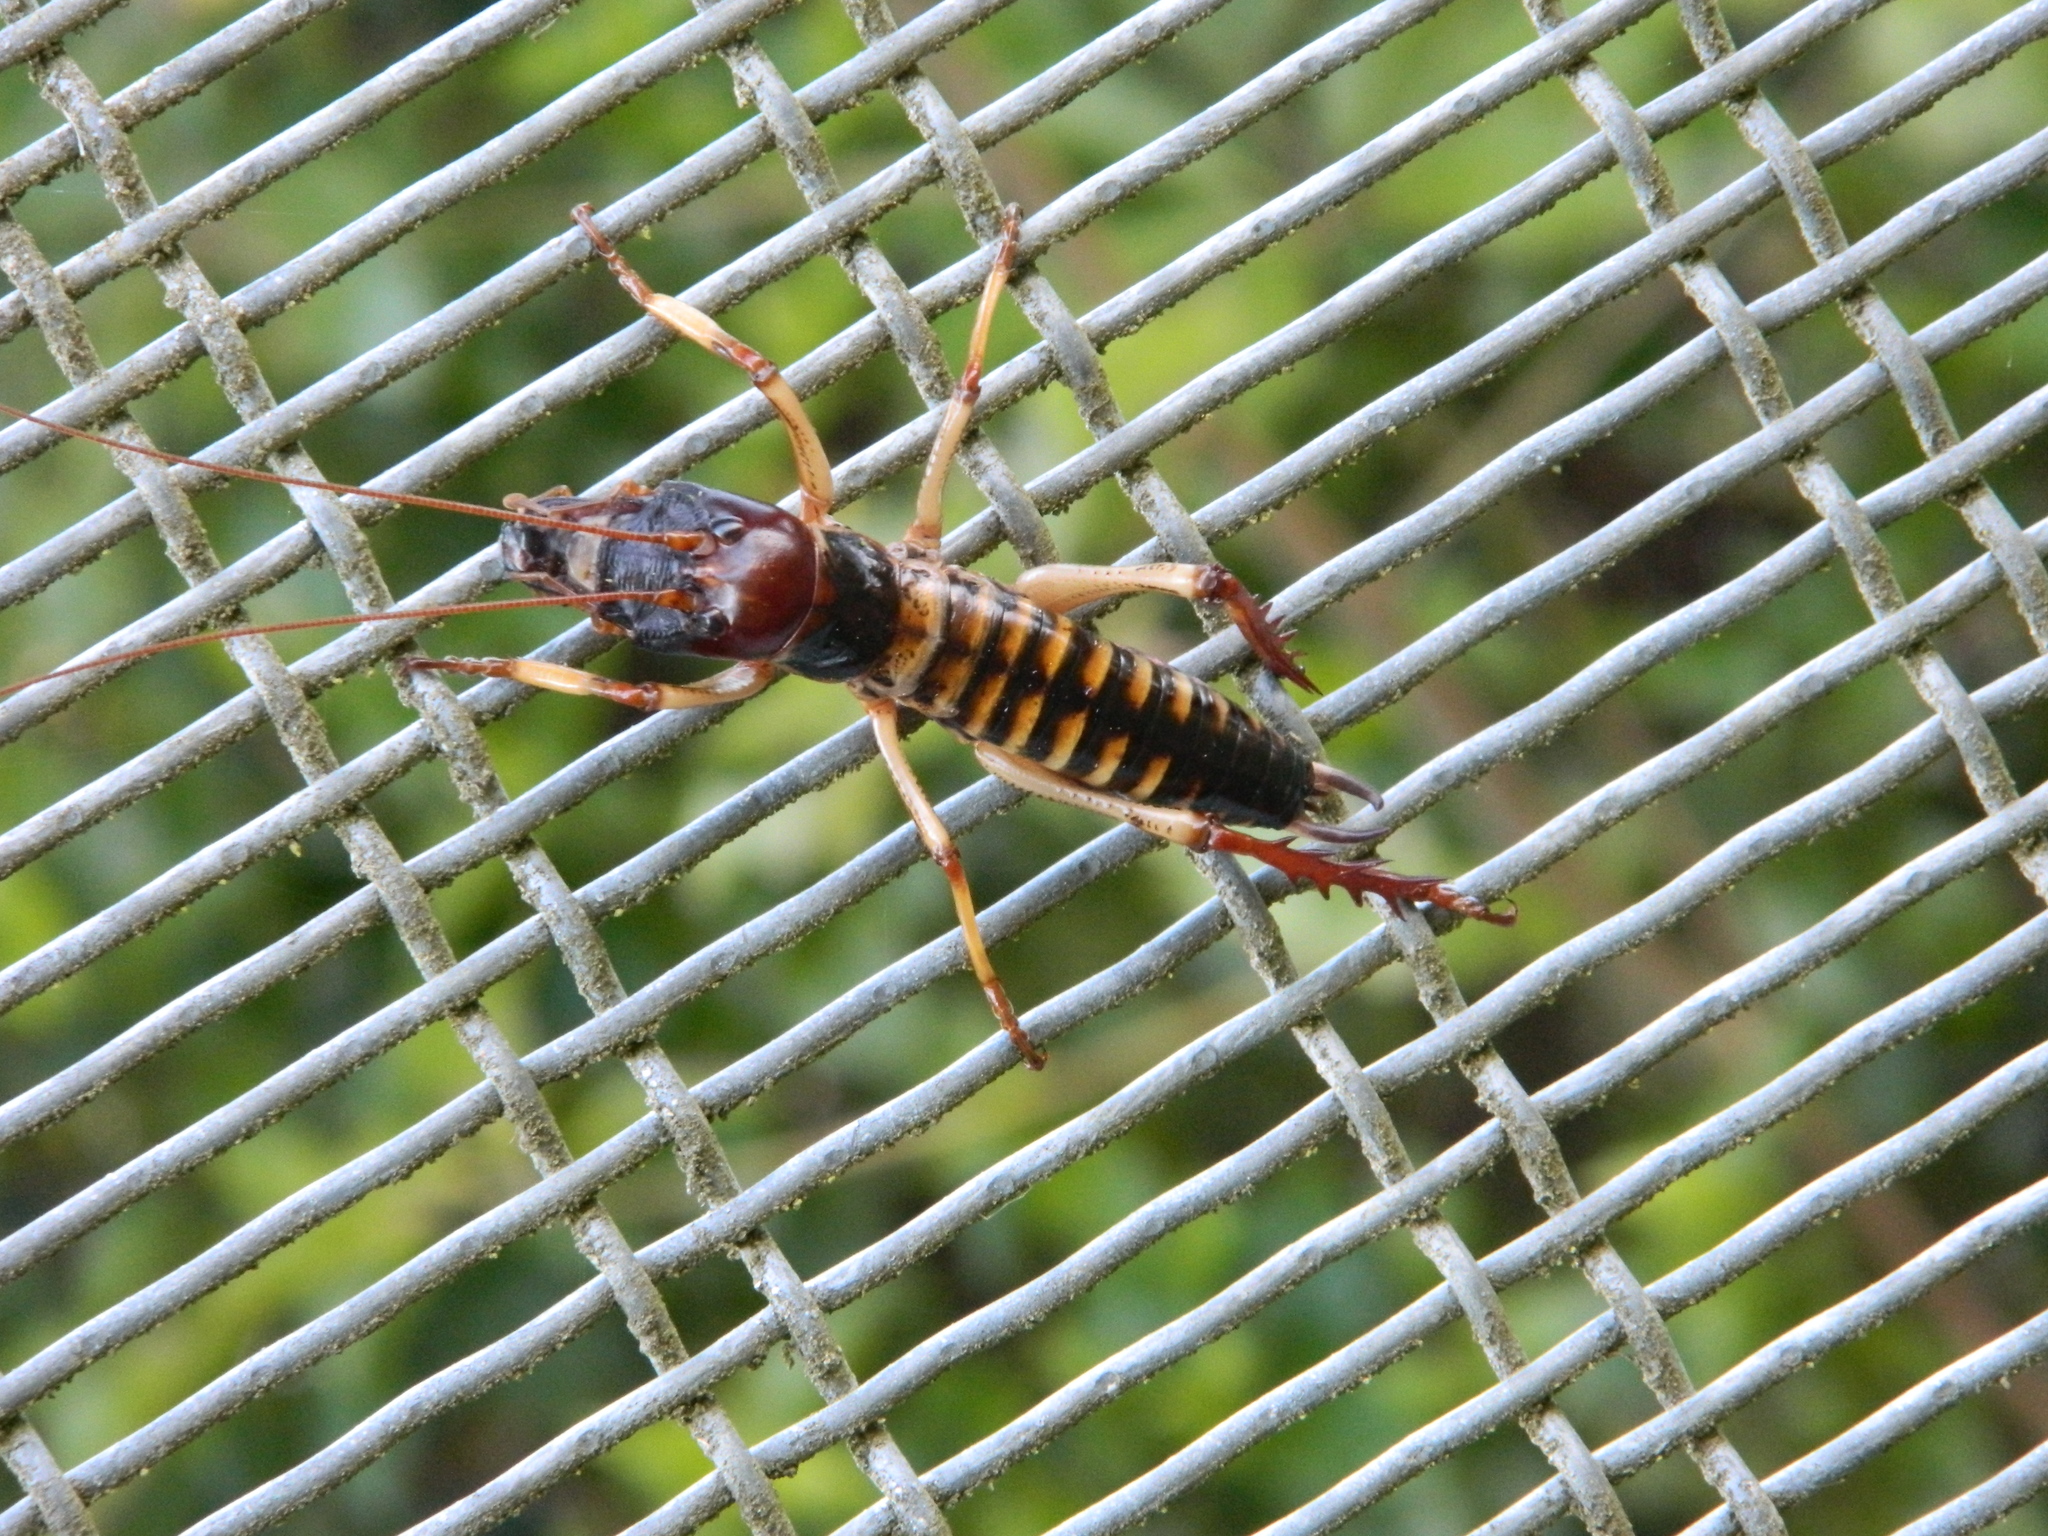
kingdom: Animalia
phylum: Arthropoda
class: Insecta
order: Orthoptera
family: Anostostomatidae
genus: Hemideina
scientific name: Hemideina crassidens
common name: Wellington tree weta
